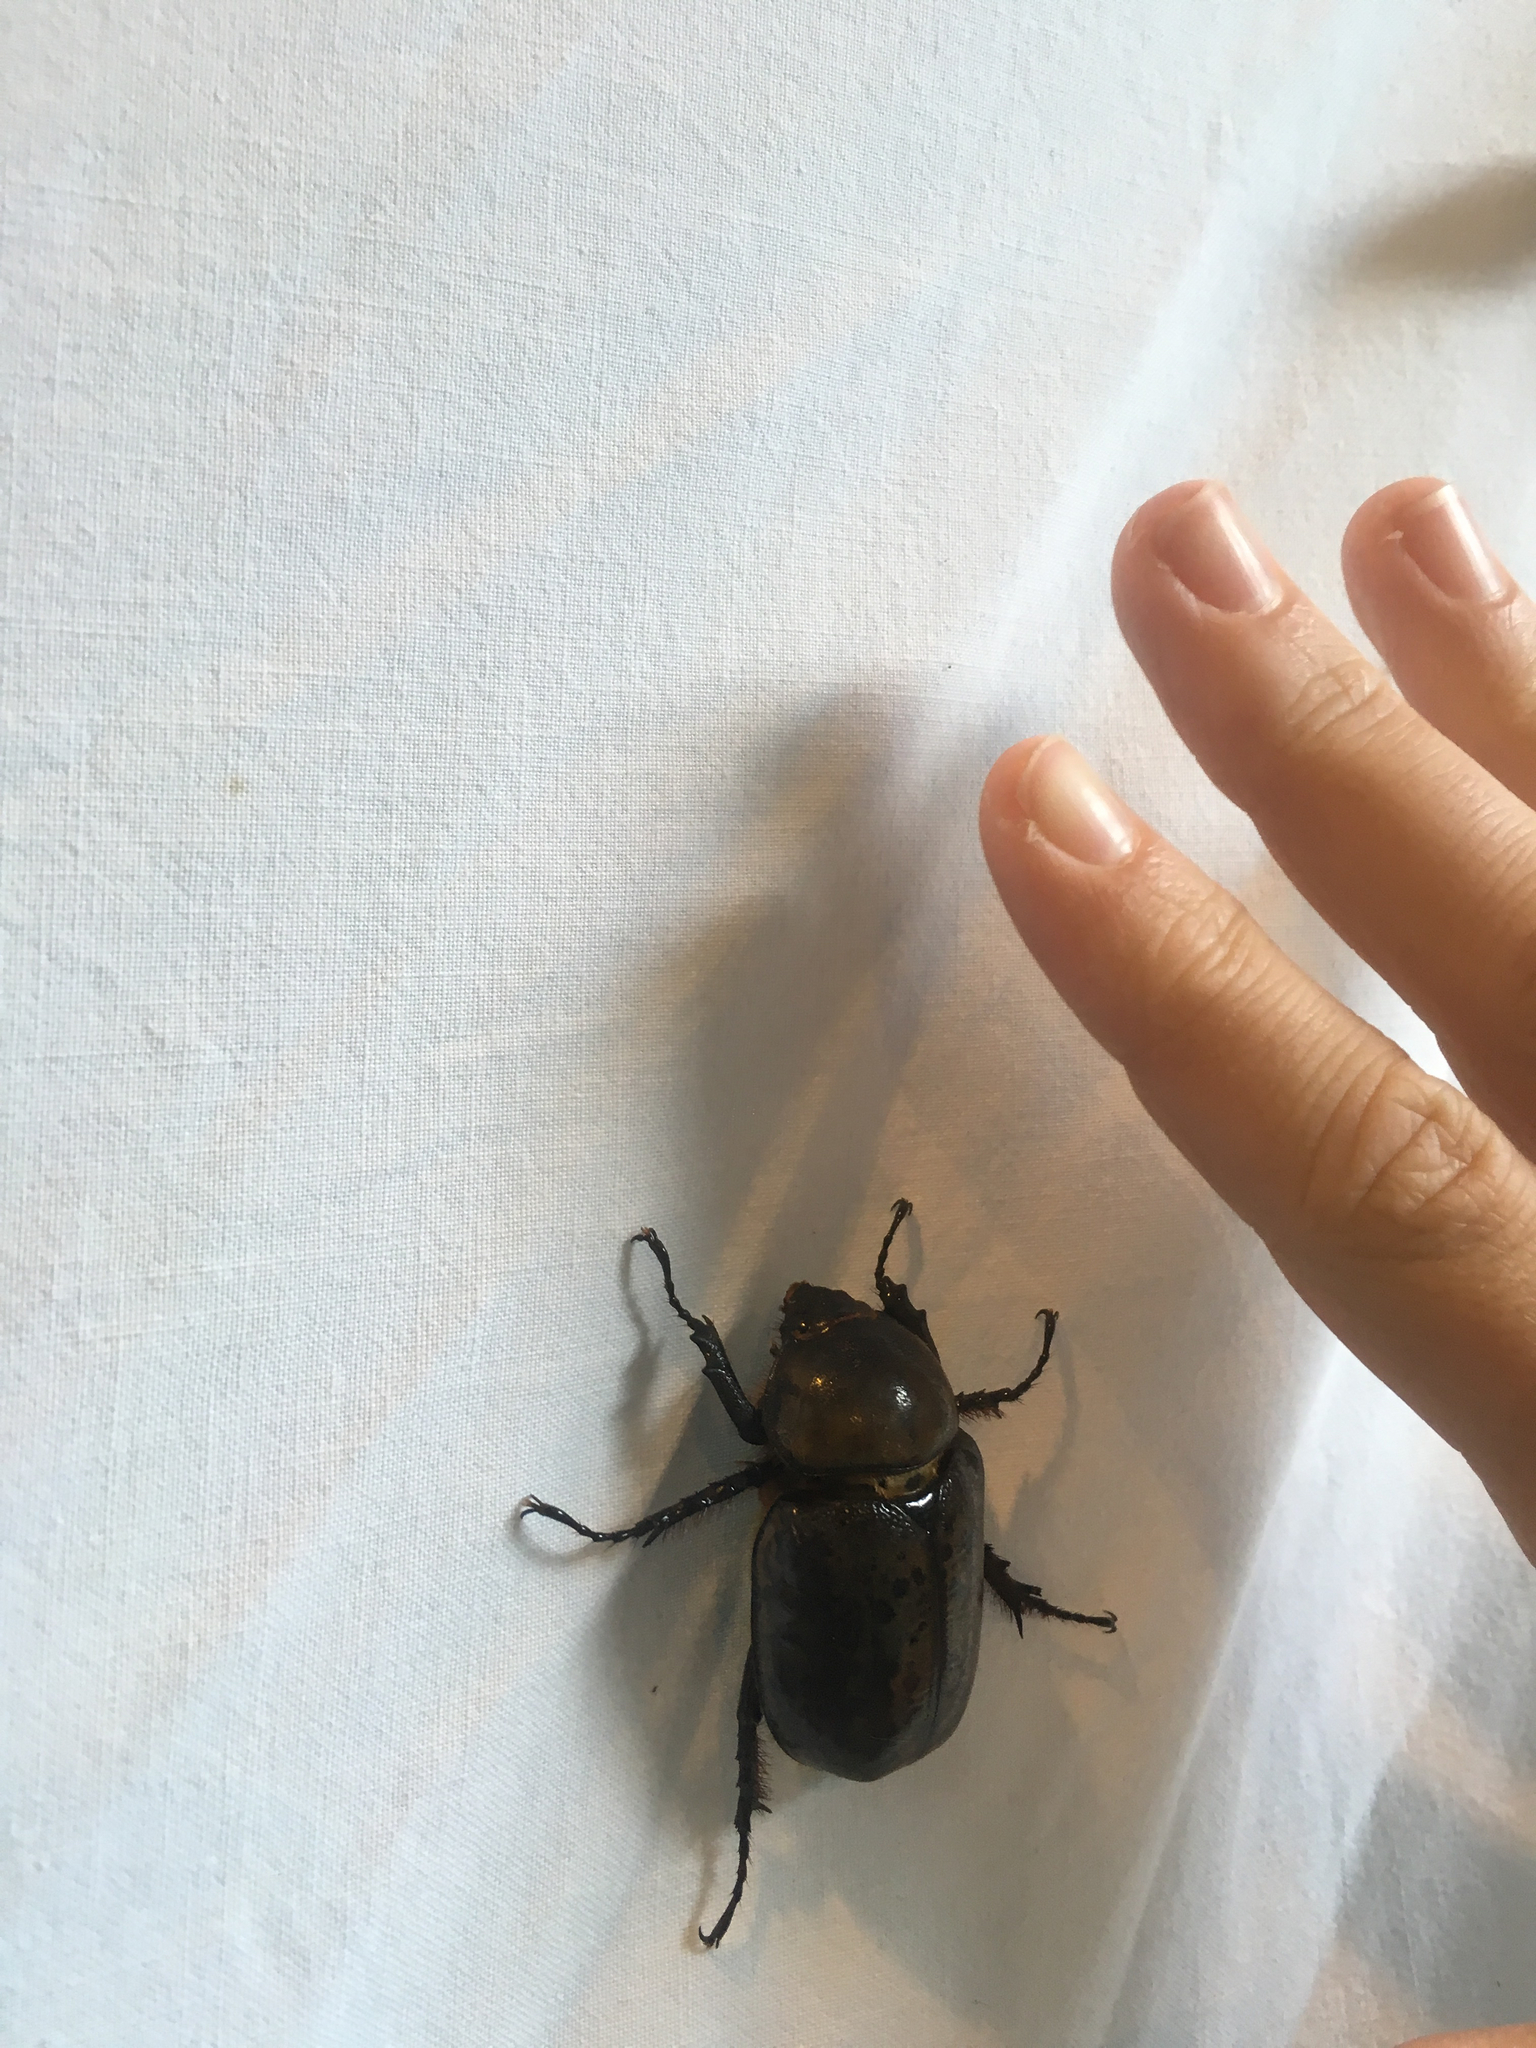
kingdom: Animalia
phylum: Arthropoda
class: Insecta
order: Coleoptera
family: Scarabaeidae
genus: Dynastes
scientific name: Dynastes tityus
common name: Eastern hercules beetle
